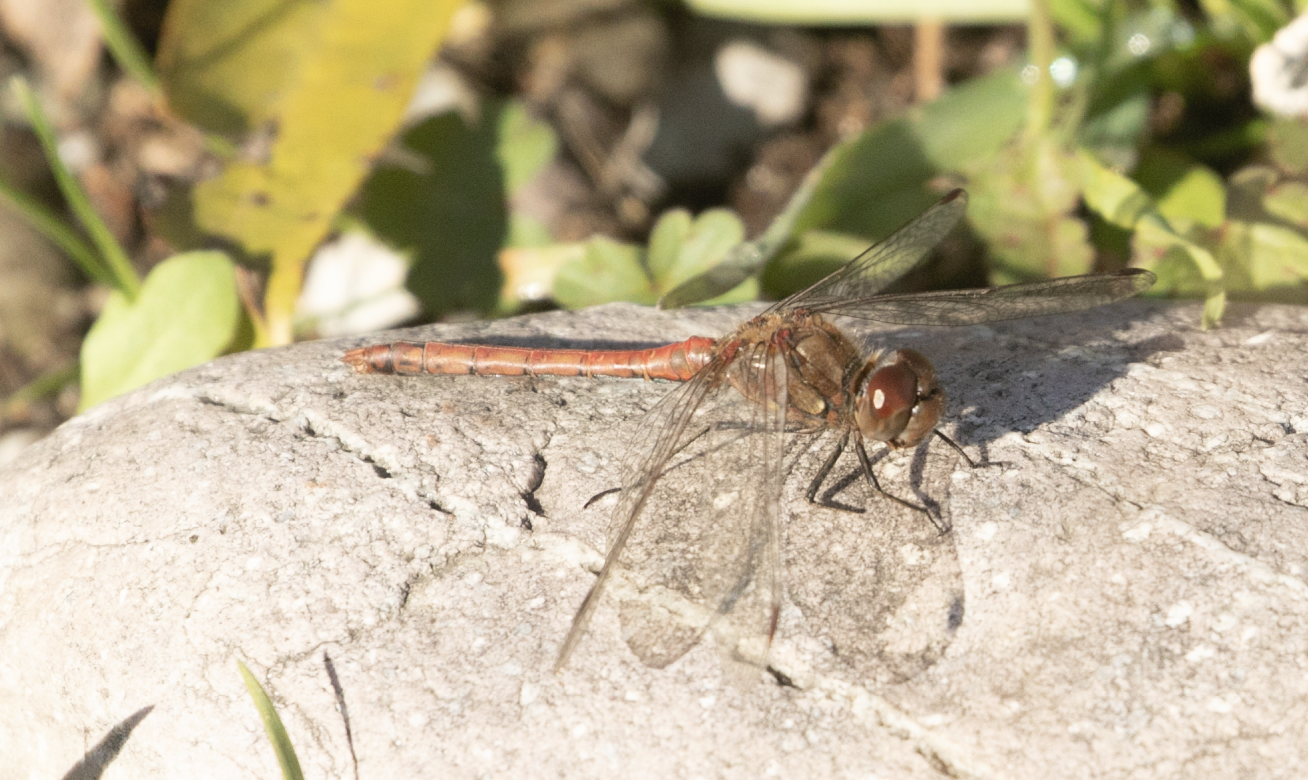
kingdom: Animalia
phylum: Arthropoda
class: Insecta
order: Odonata
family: Libellulidae
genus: Sympetrum
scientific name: Sympetrum striolatum
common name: Common darter
